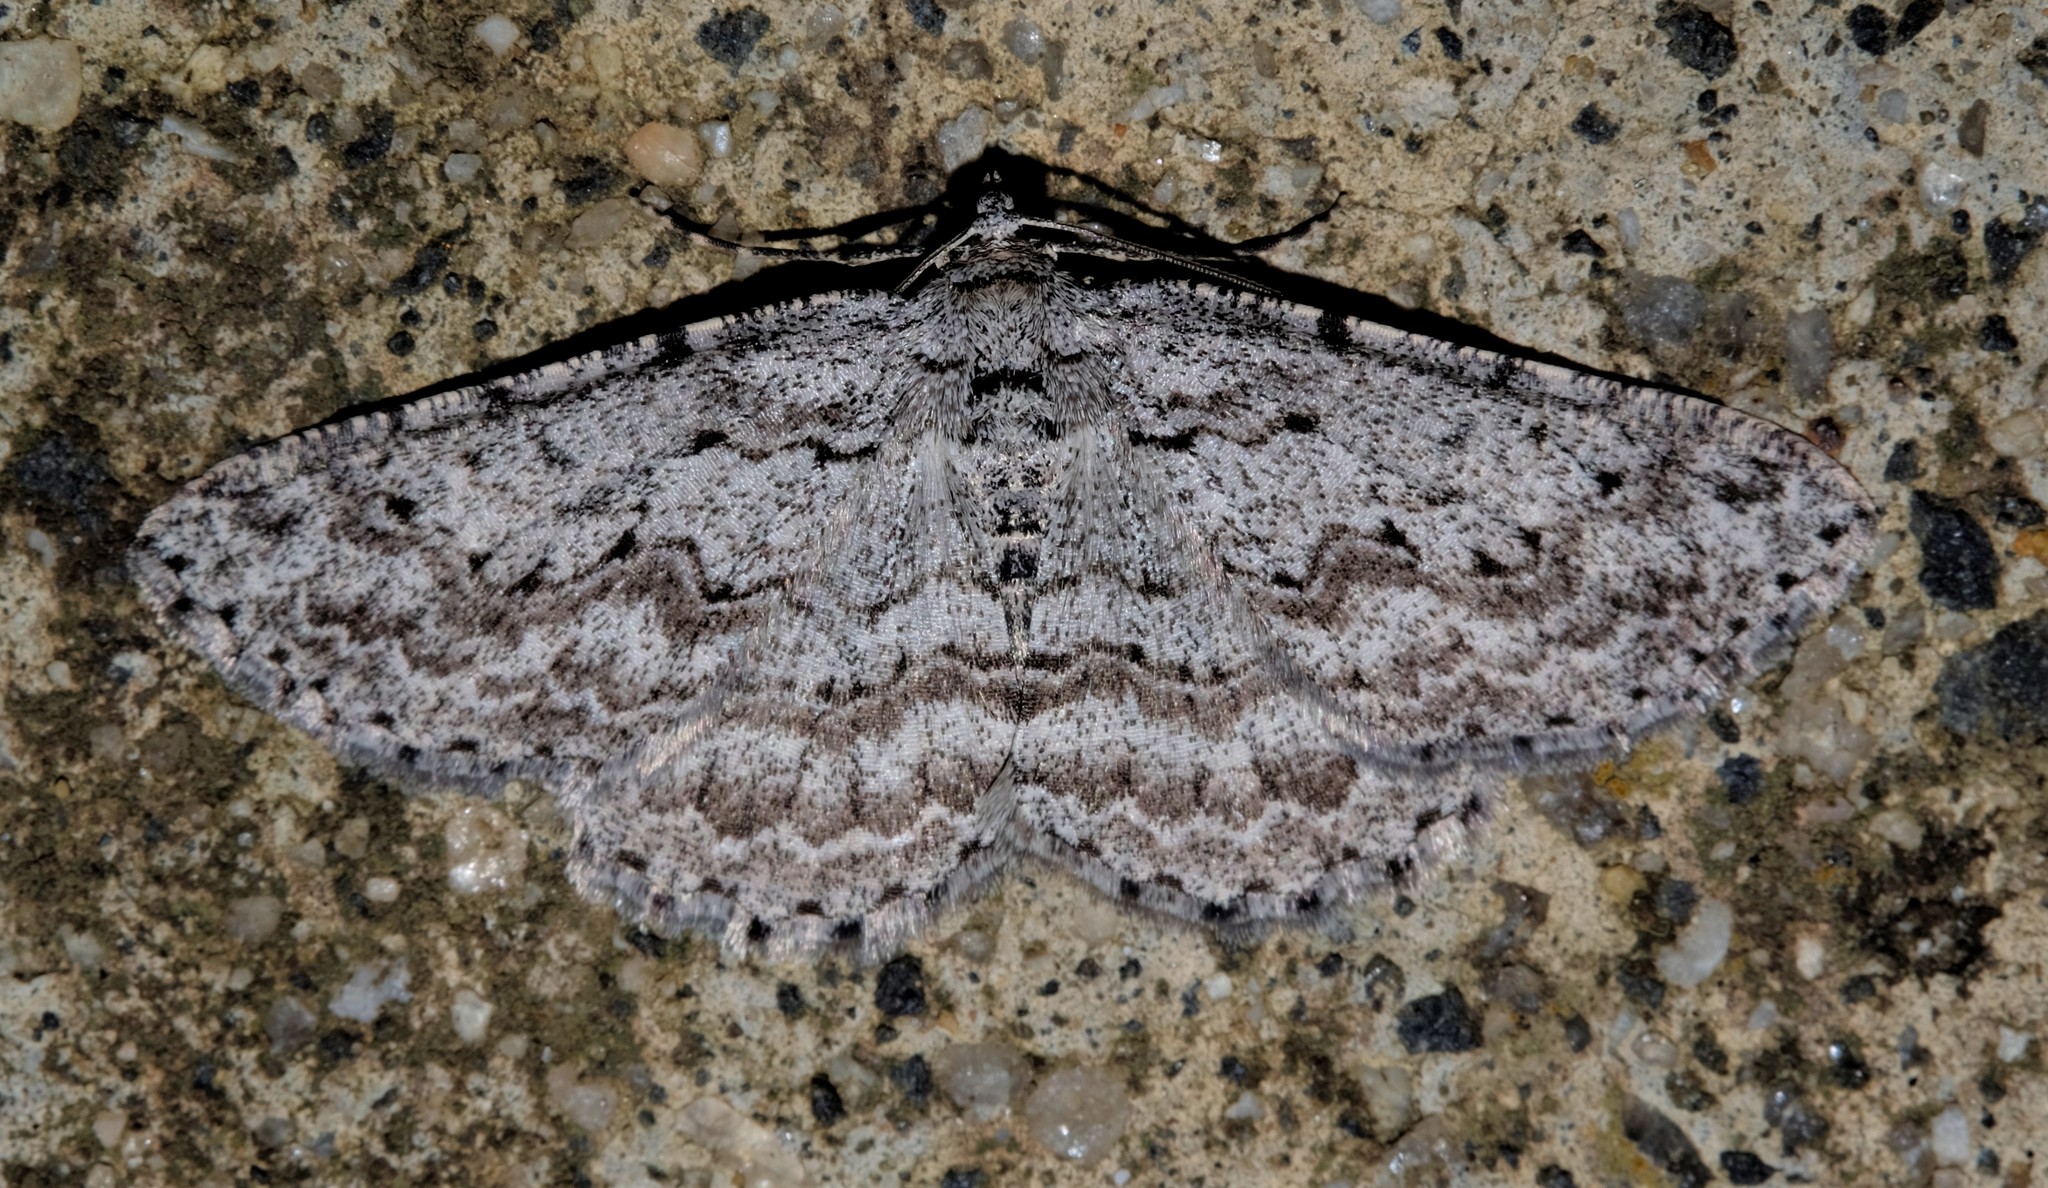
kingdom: Animalia
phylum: Arthropoda
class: Insecta
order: Lepidoptera
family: Geometridae
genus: Psilosticha
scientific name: Psilosticha absorpta
